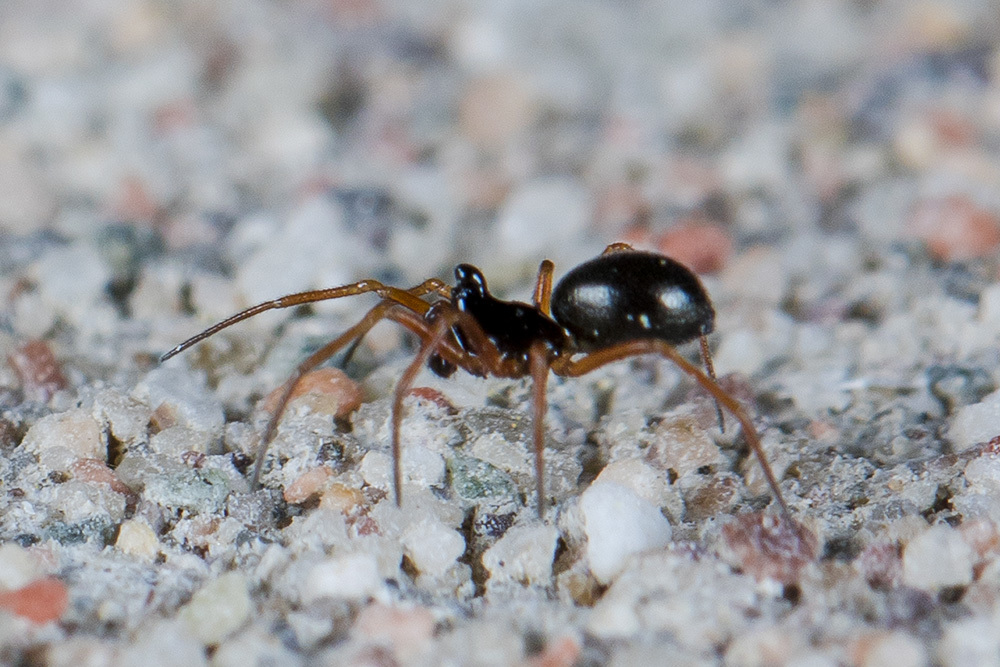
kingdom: Animalia
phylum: Arthropoda
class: Arachnida
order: Araneae
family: Linyphiidae
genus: Entelecara
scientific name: Entelecara acuminata
